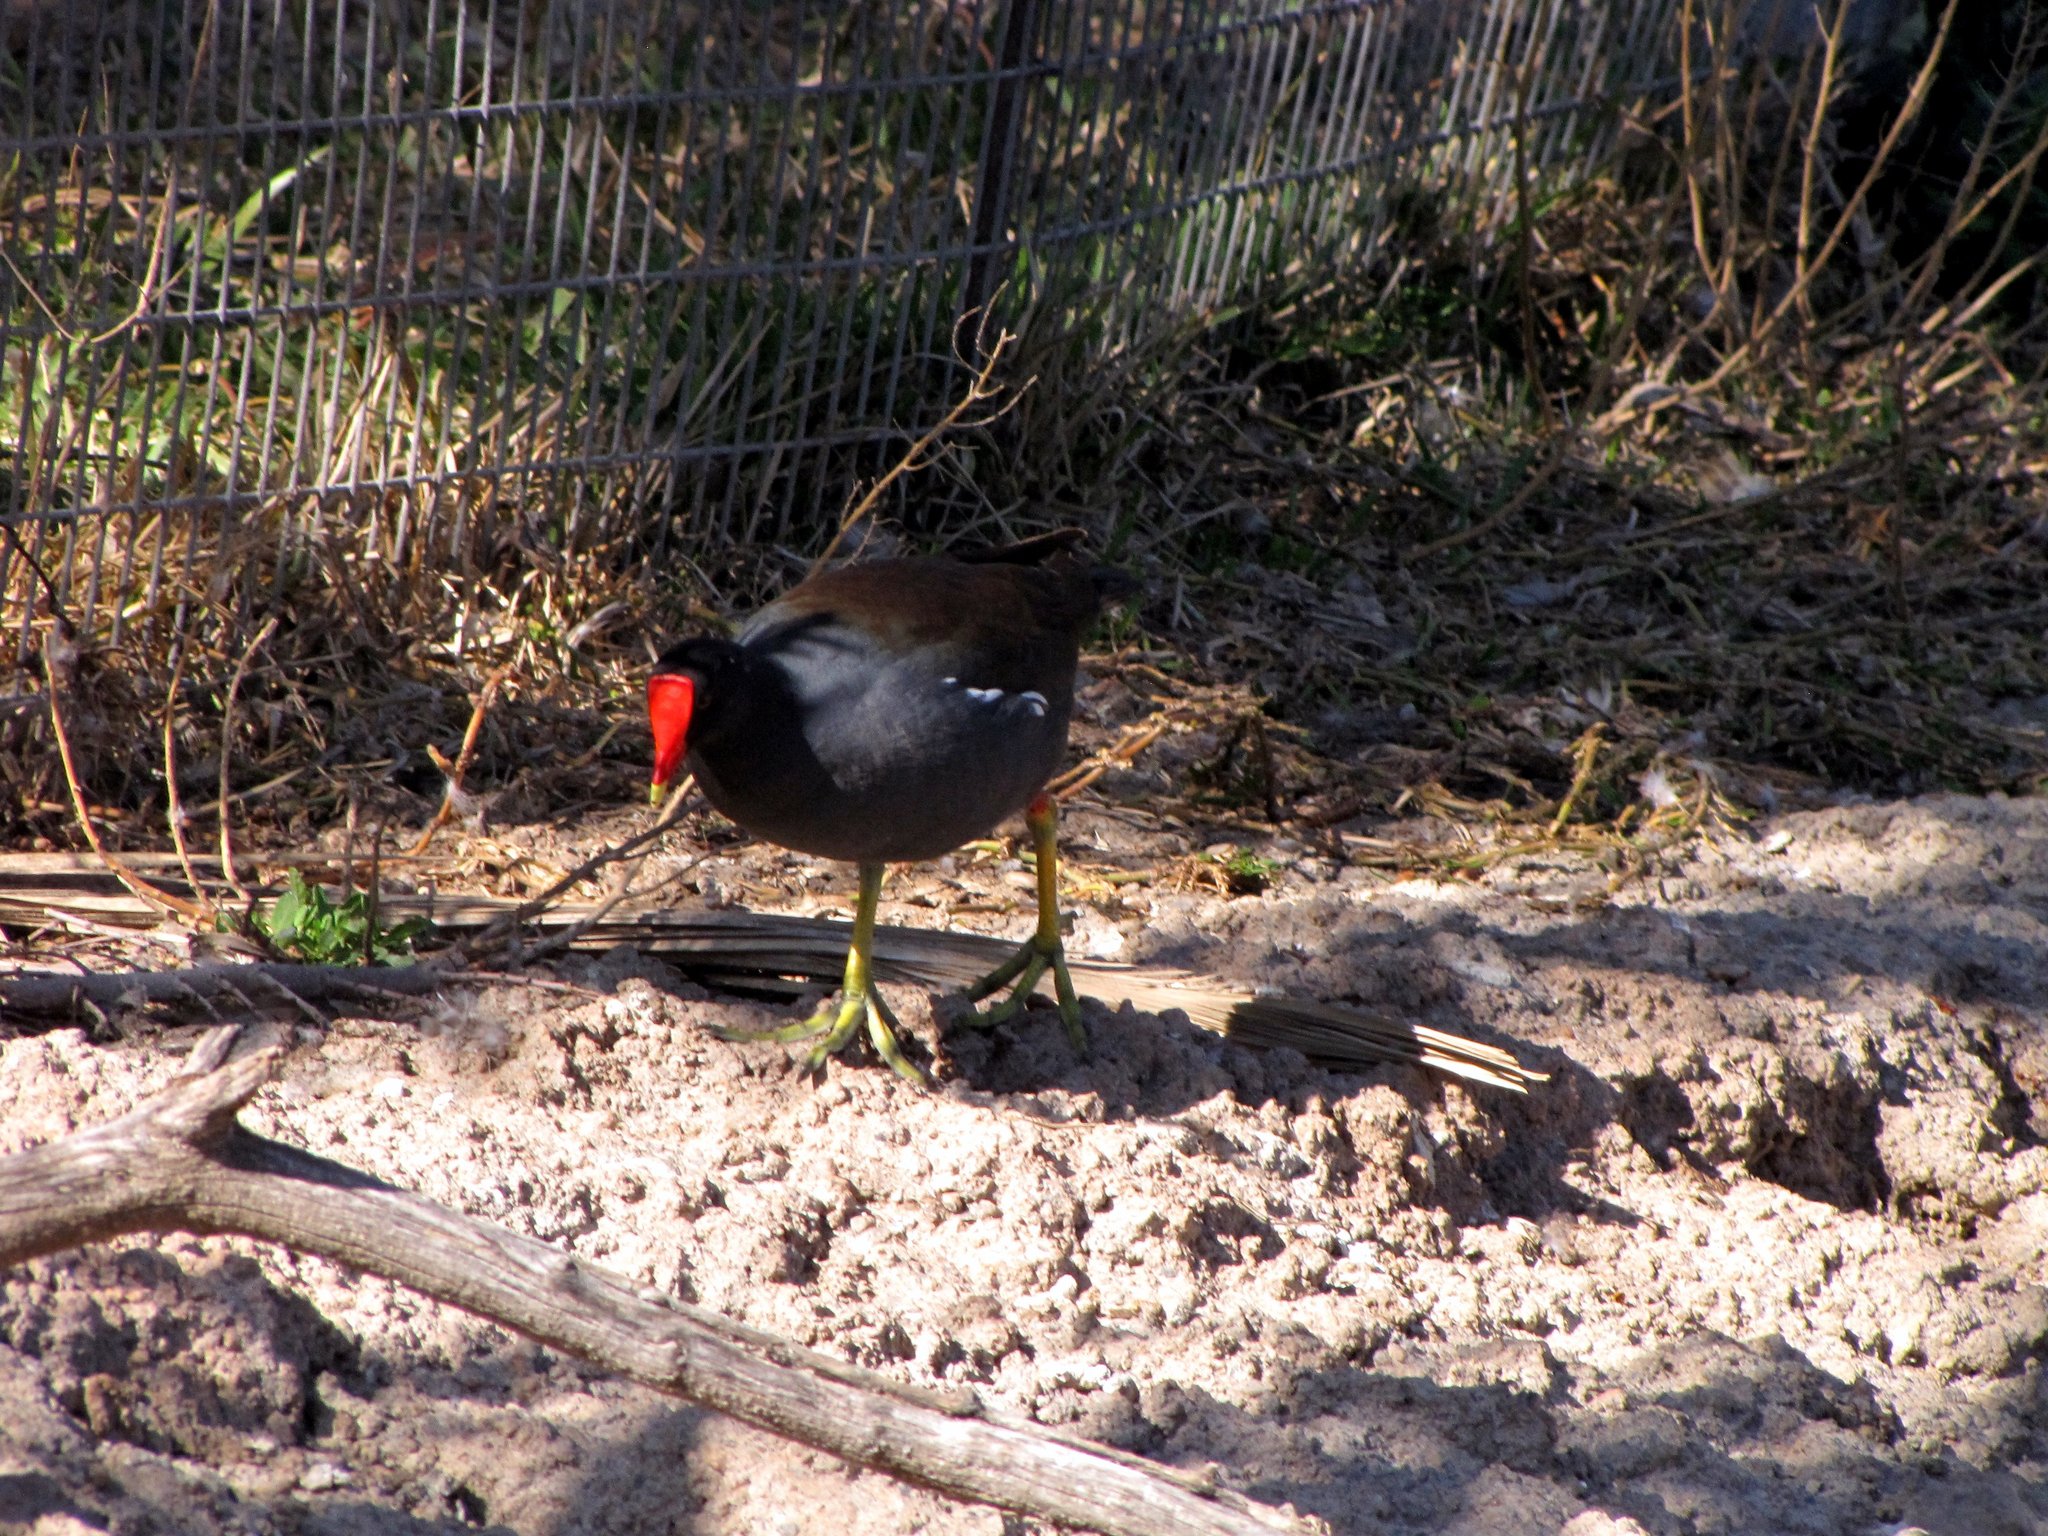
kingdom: Animalia
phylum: Chordata
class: Aves
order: Gruiformes
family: Rallidae
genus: Gallinula
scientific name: Gallinula chloropus
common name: Common moorhen
